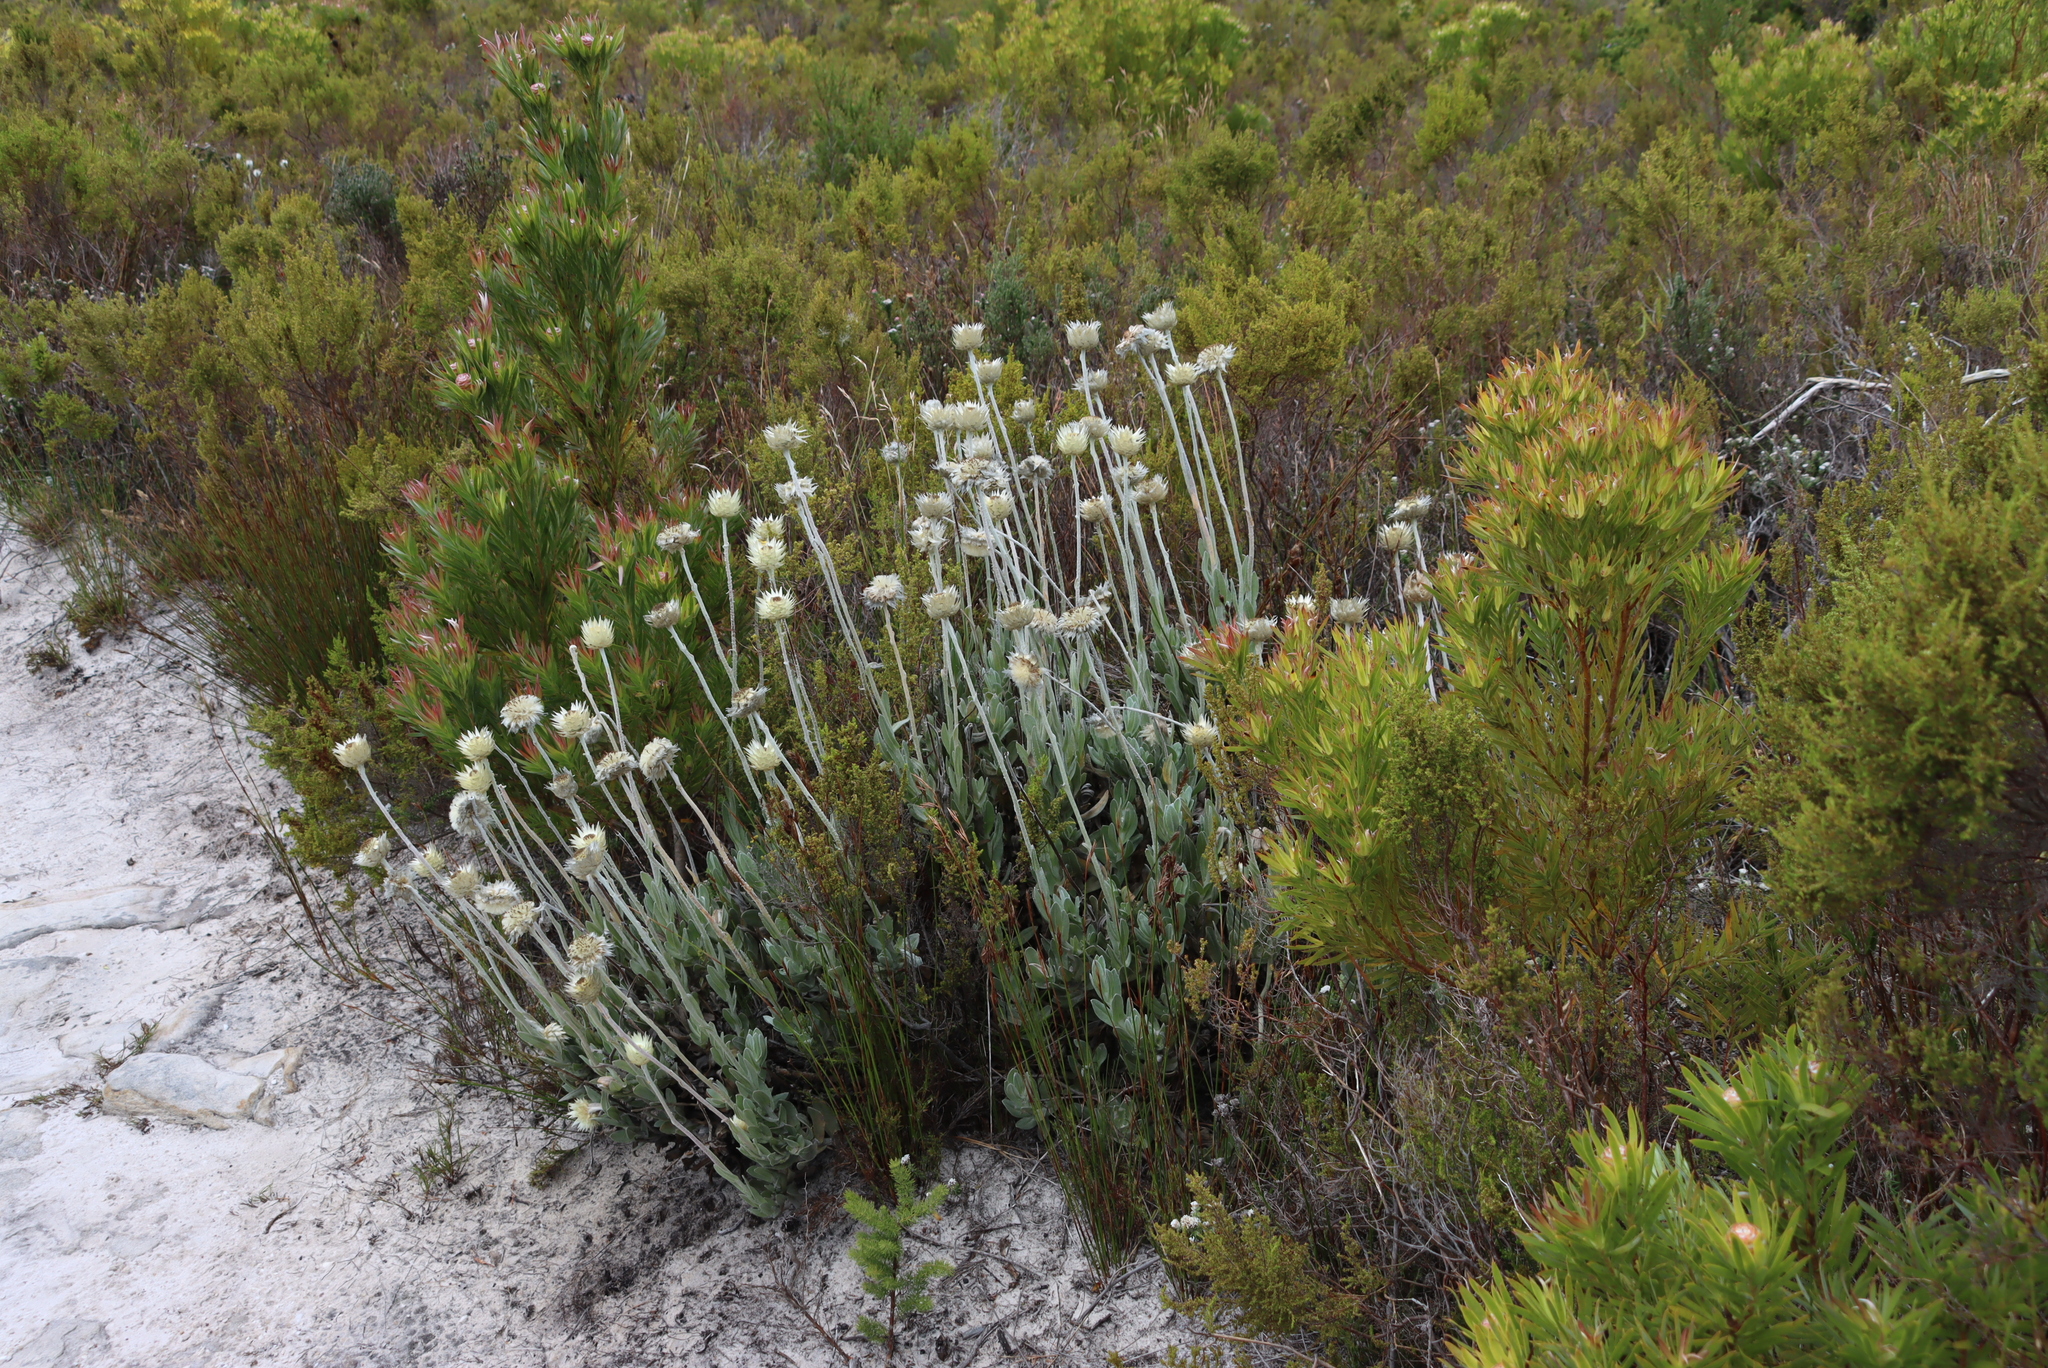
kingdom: Plantae
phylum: Tracheophyta
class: Magnoliopsida
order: Asterales
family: Asteraceae
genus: Syncarpha
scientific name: Syncarpha speciosissima
